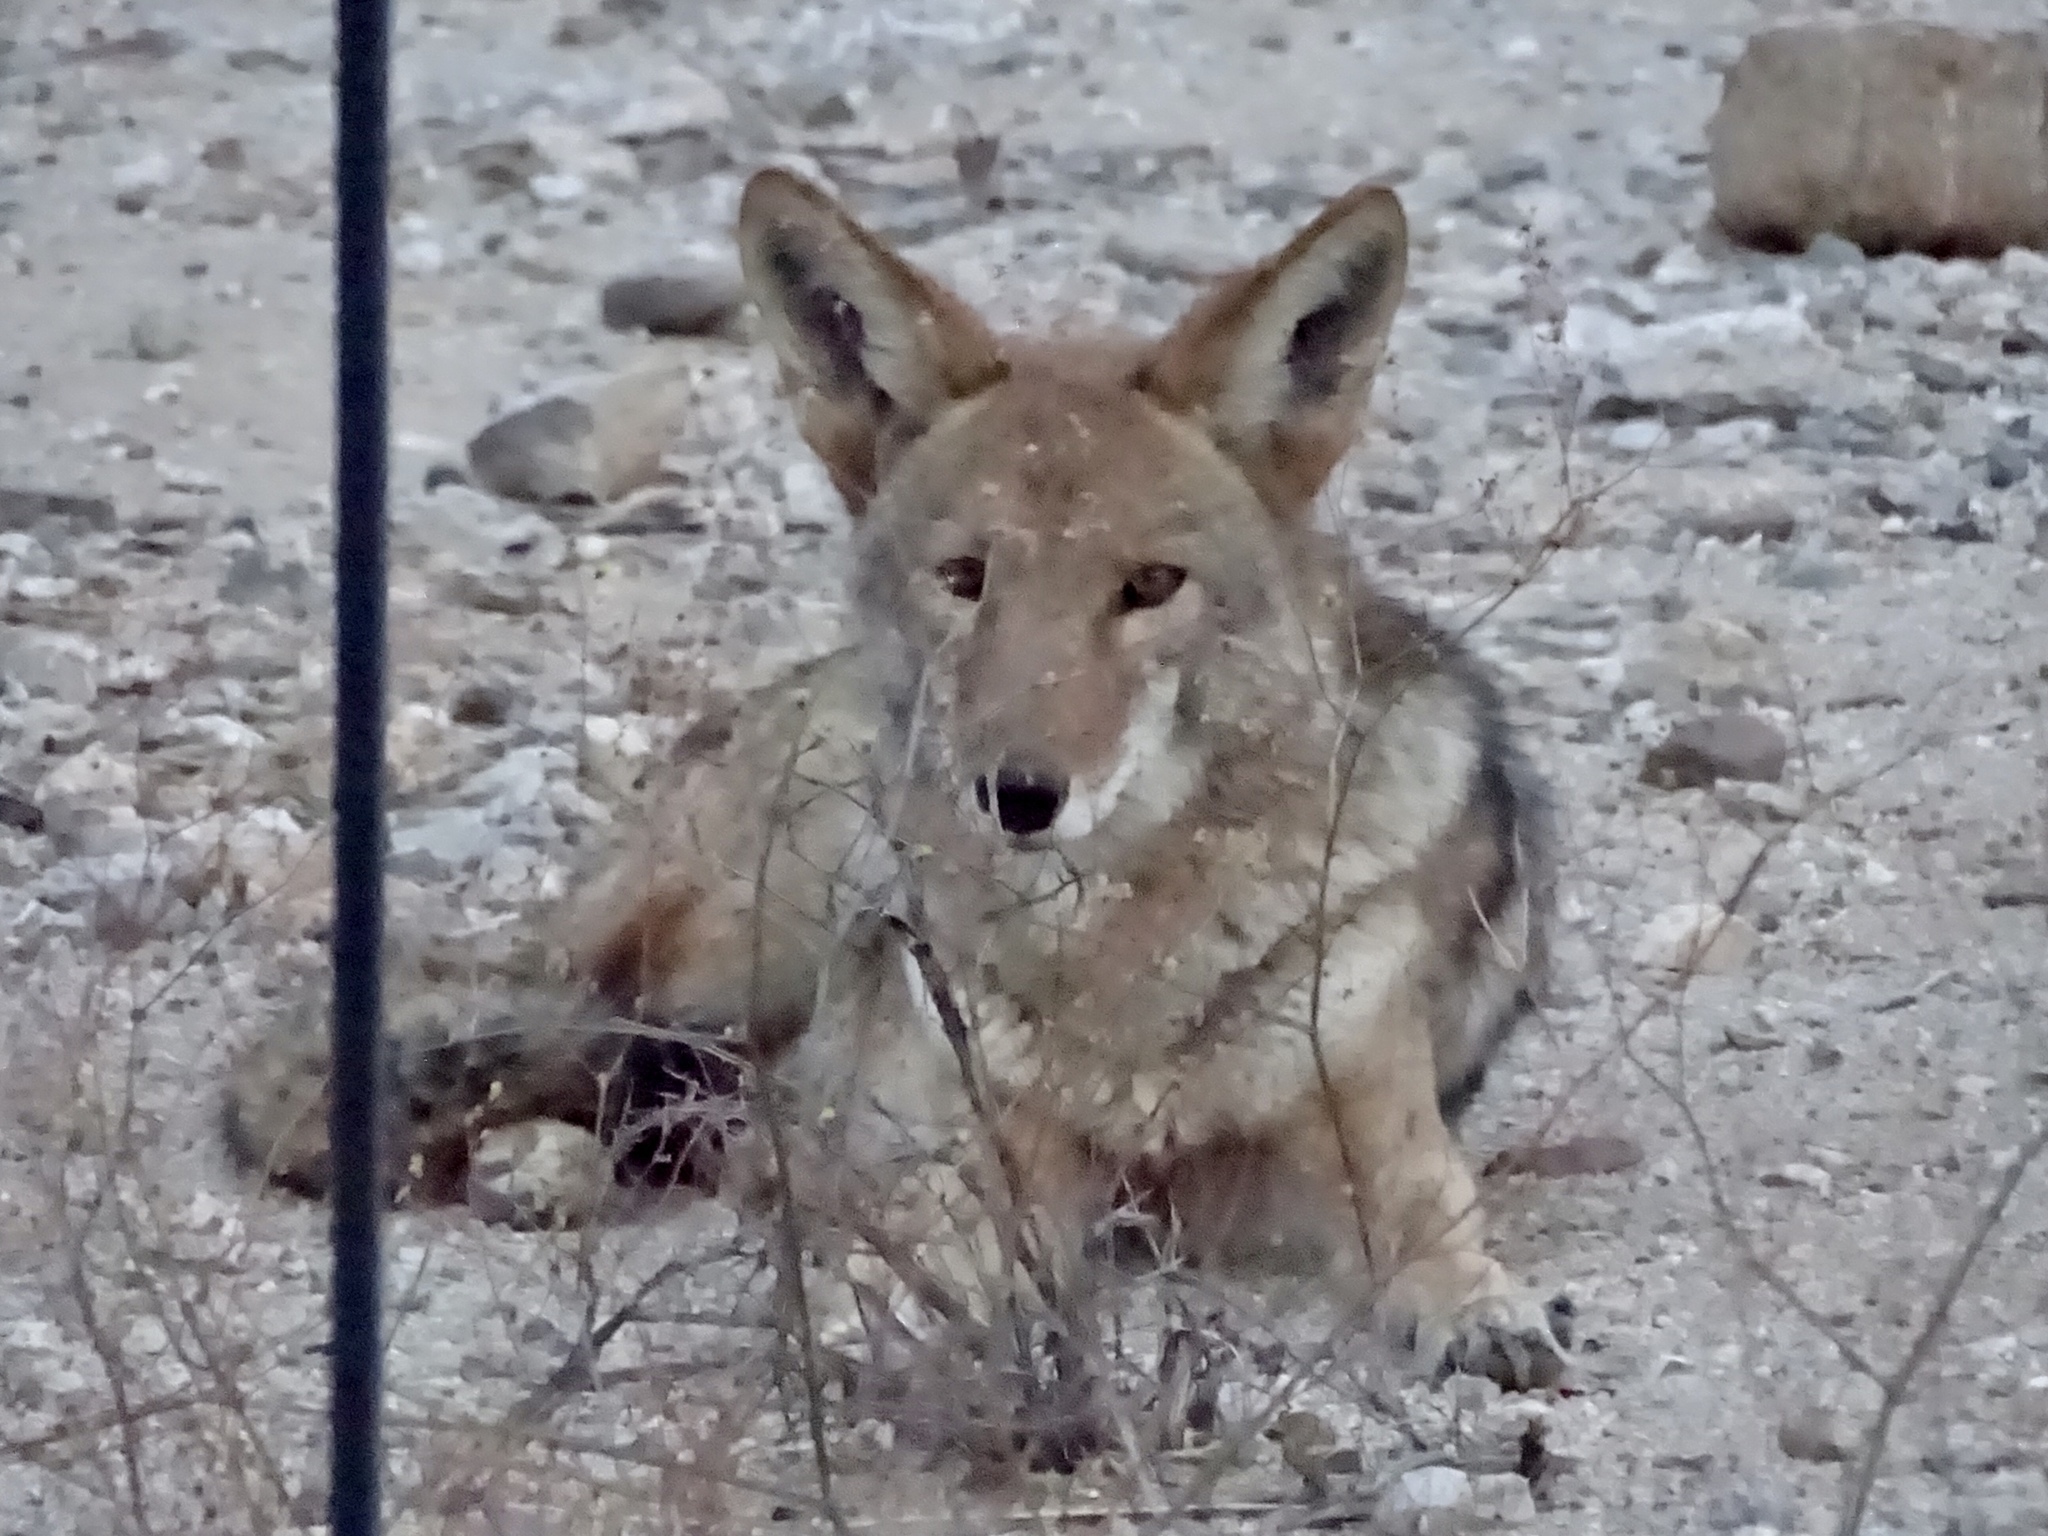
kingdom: Animalia
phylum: Chordata
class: Mammalia
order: Carnivora
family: Canidae
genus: Canis
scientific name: Canis latrans
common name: Coyote
